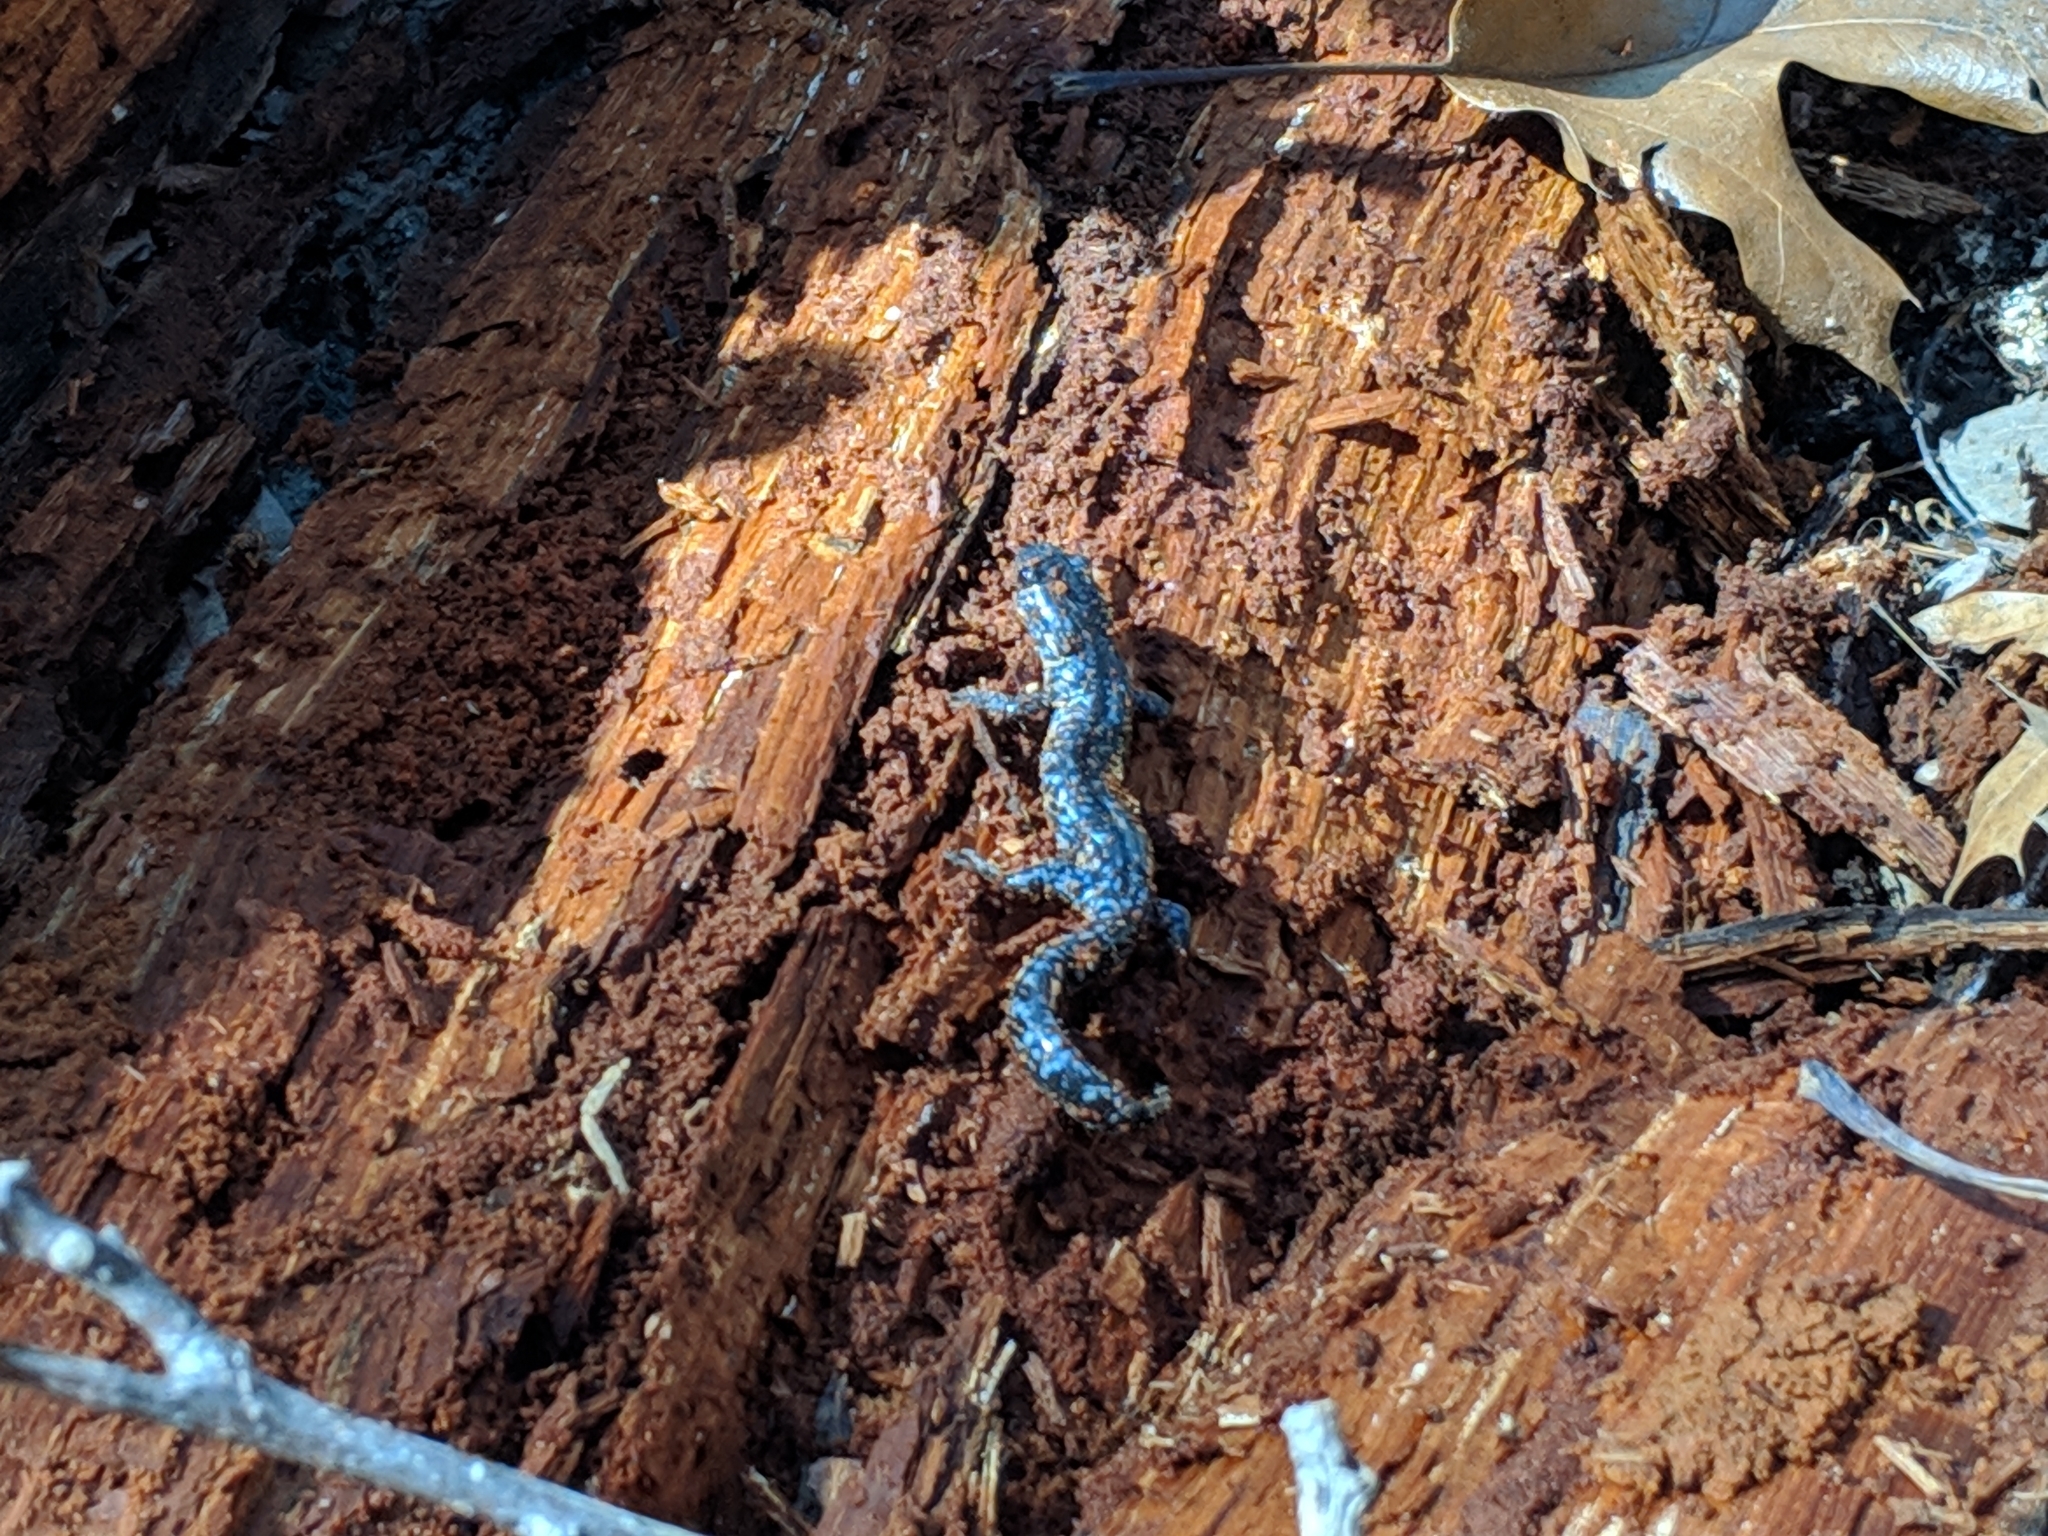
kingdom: Animalia
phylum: Chordata
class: Amphibia
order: Caudata
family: Ambystomatidae
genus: Ambystoma
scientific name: Ambystoma laterale
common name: Blue-spotted salamander
